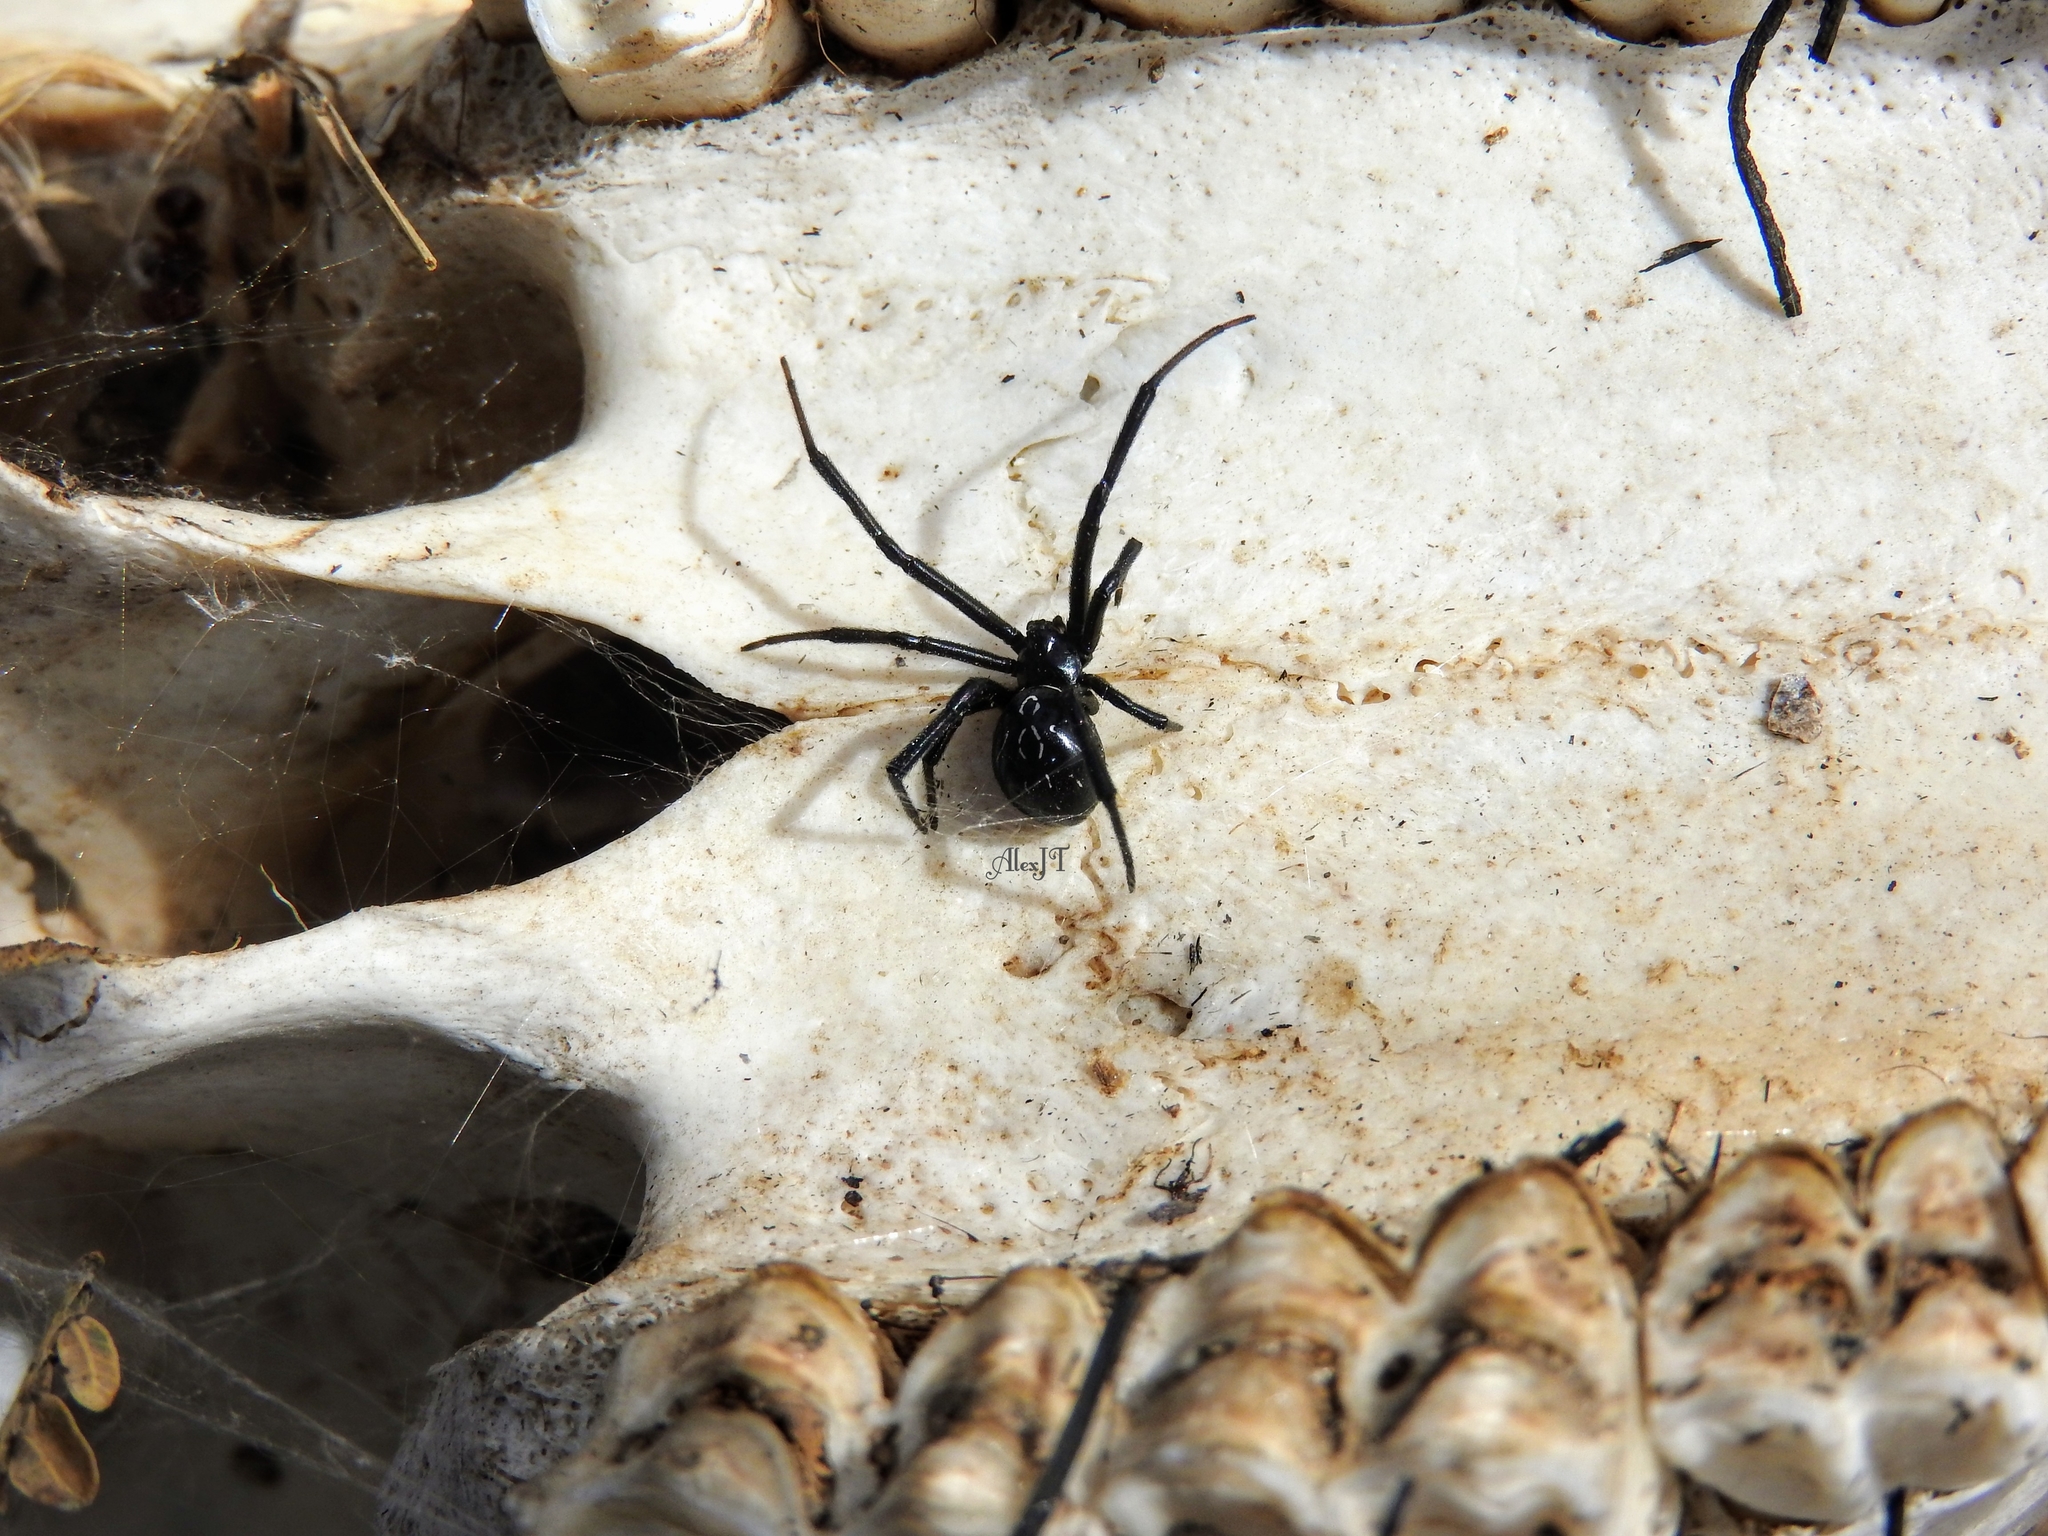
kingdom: Animalia
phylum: Arthropoda
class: Arachnida
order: Araneae
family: Theridiidae
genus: Latrodectus
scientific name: Latrodectus hesperus
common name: Western black widow
